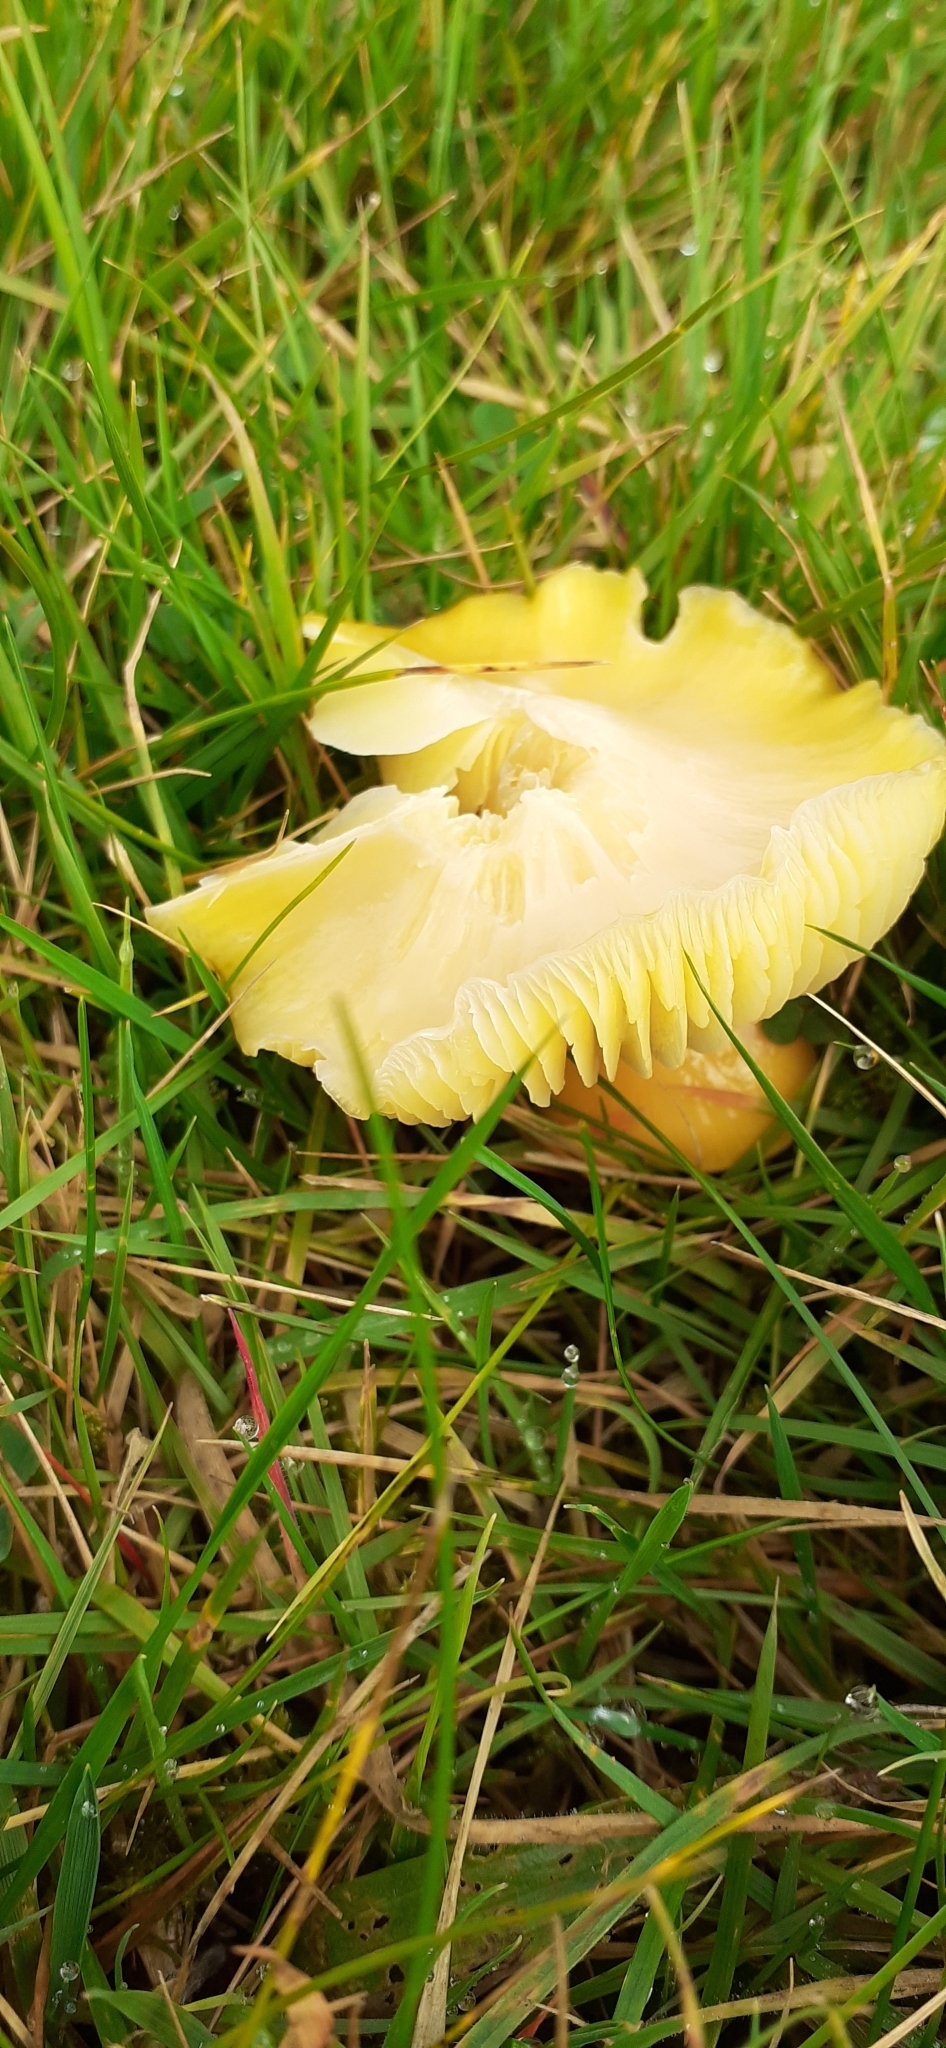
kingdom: Fungi
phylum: Basidiomycota
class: Agaricomycetes
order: Agaricales
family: Hygrophoraceae
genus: Hygrocybe
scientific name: Hygrocybe chlorophana
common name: Golden waxcap
